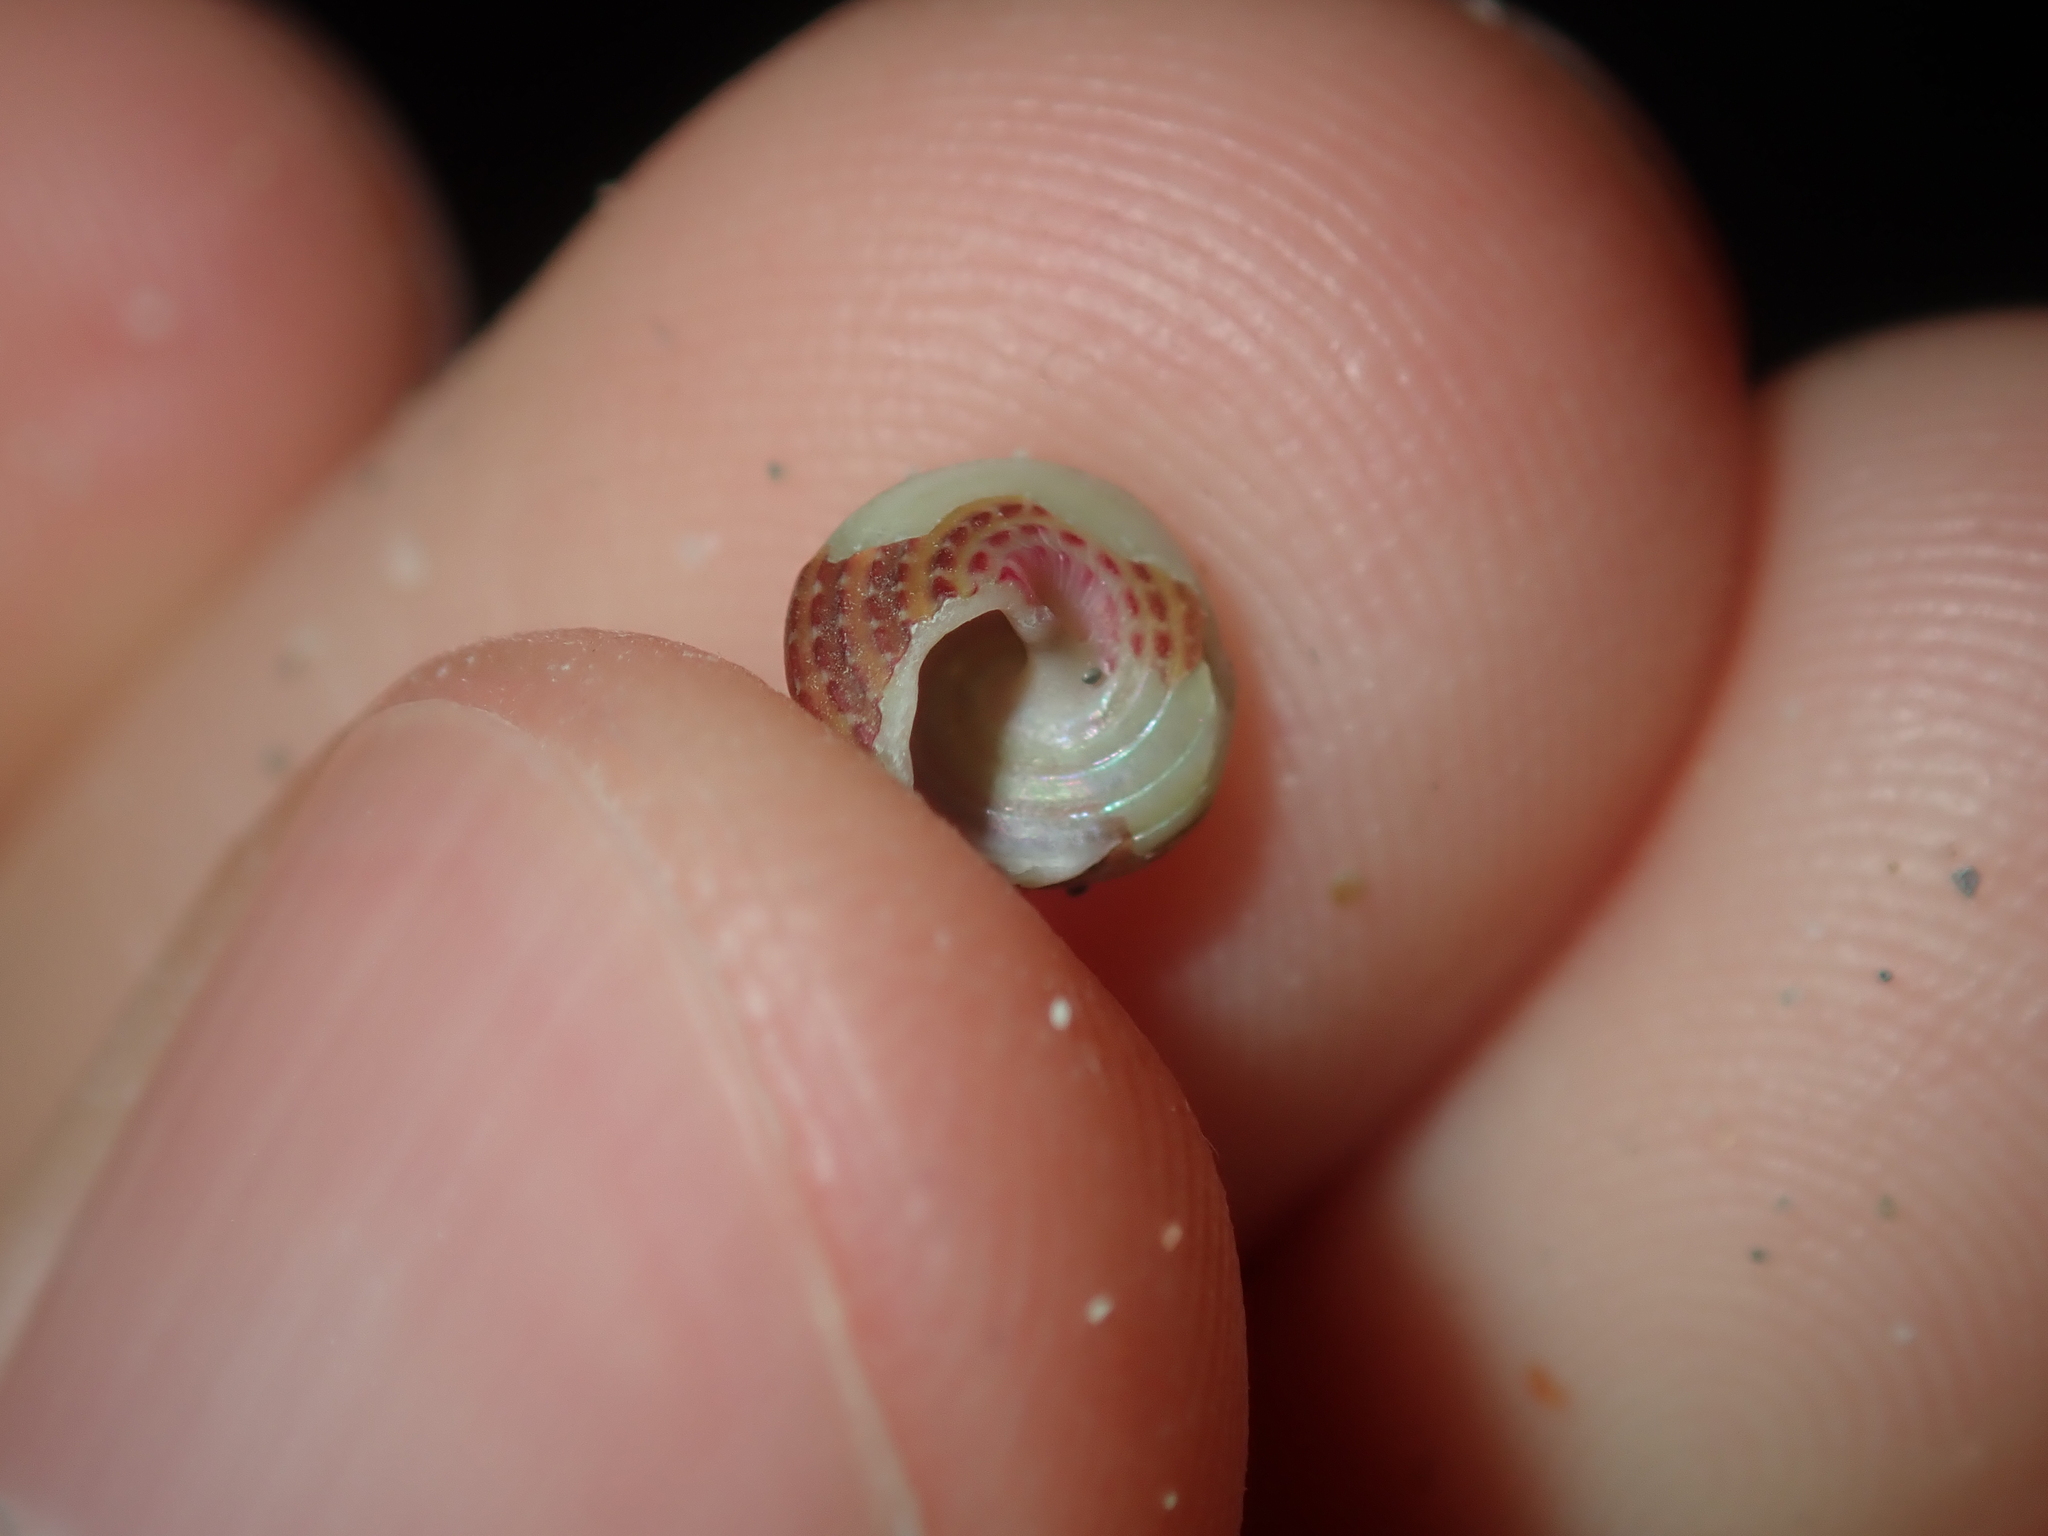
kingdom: Animalia
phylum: Mollusca
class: Gastropoda
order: Trochida
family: Trochidae
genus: Prothalotia
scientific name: Prothalotia pulcherrima
